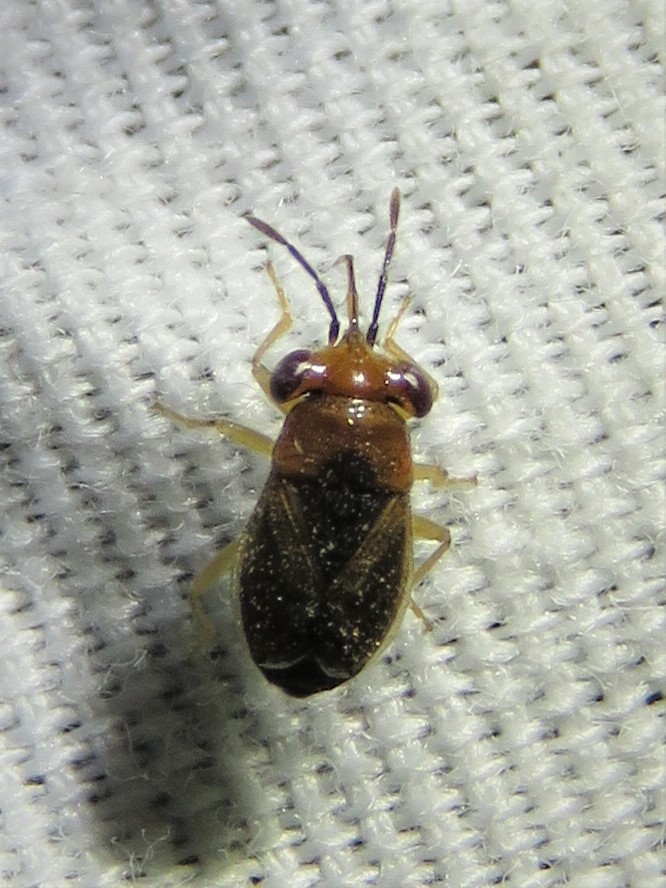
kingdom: Animalia
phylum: Arthropoda
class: Insecta
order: Hemiptera
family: Geocoridae
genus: Isthmocoris
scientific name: Isthmocoris imperialis
